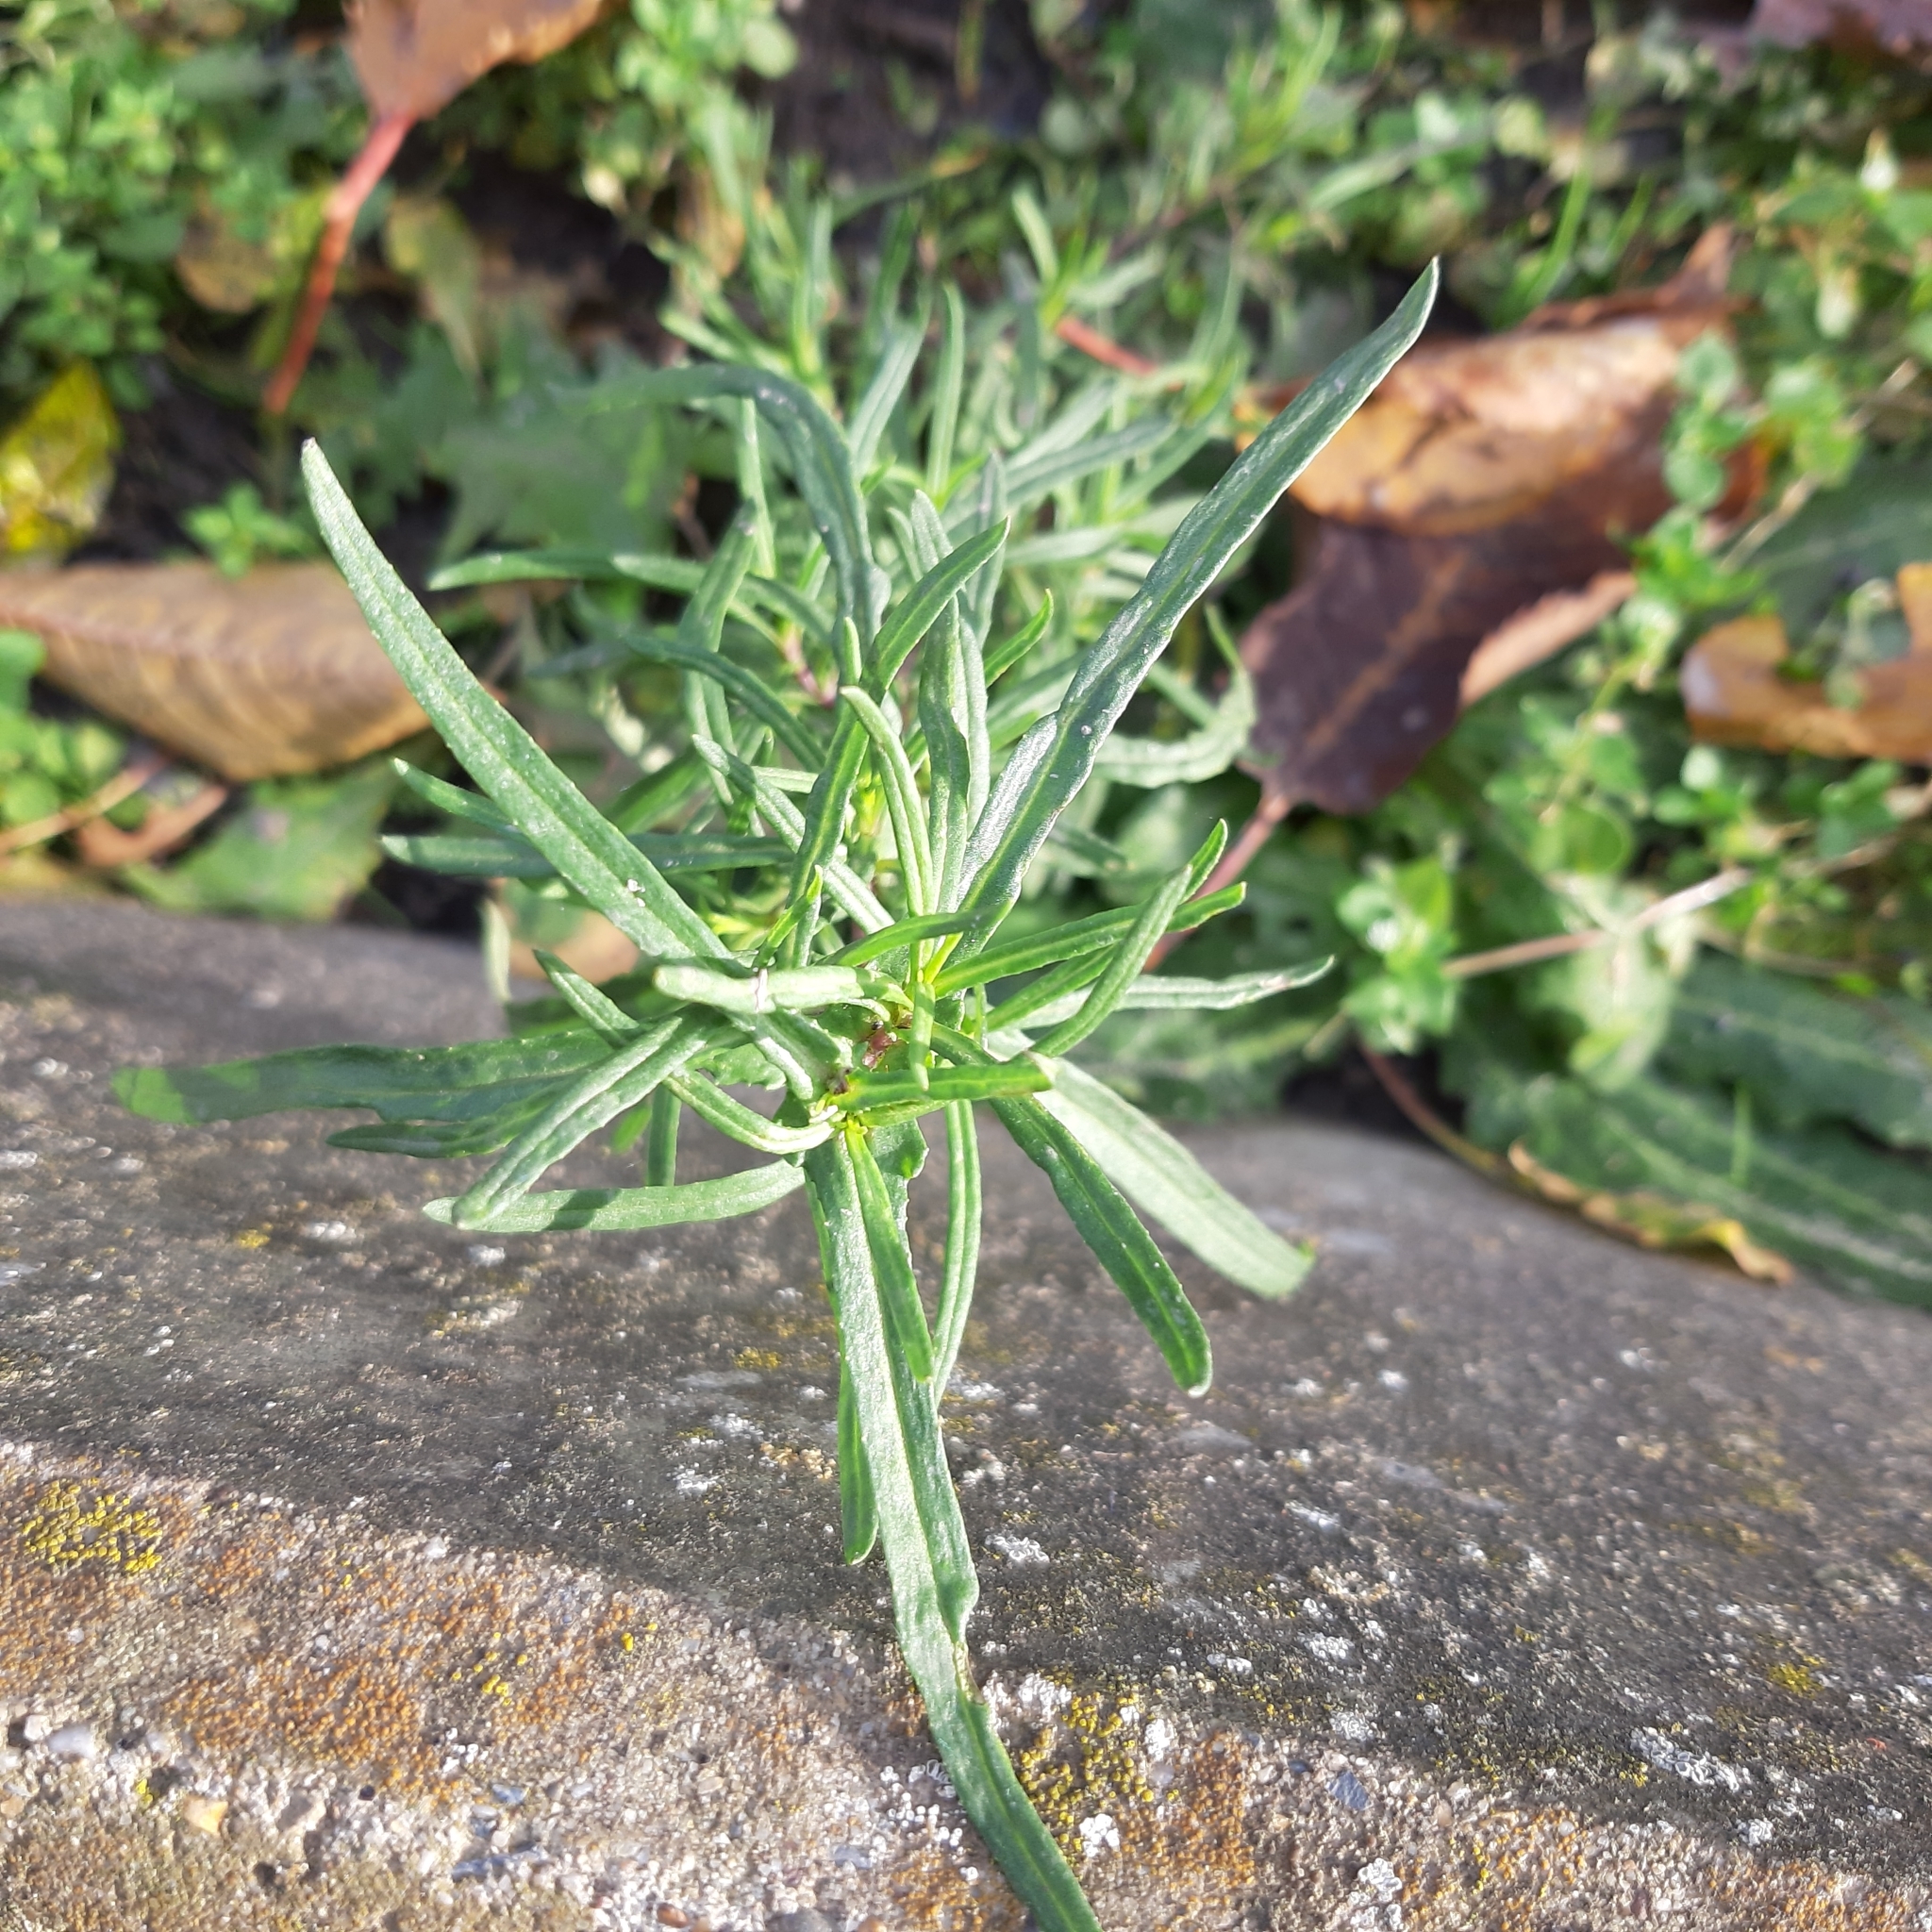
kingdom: Plantae
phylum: Tracheophyta
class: Magnoliopsida
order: Asterales
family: Asteraceae
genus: Senecio
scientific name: Senecio inaequidens
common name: Narrow-leaved ragwort
